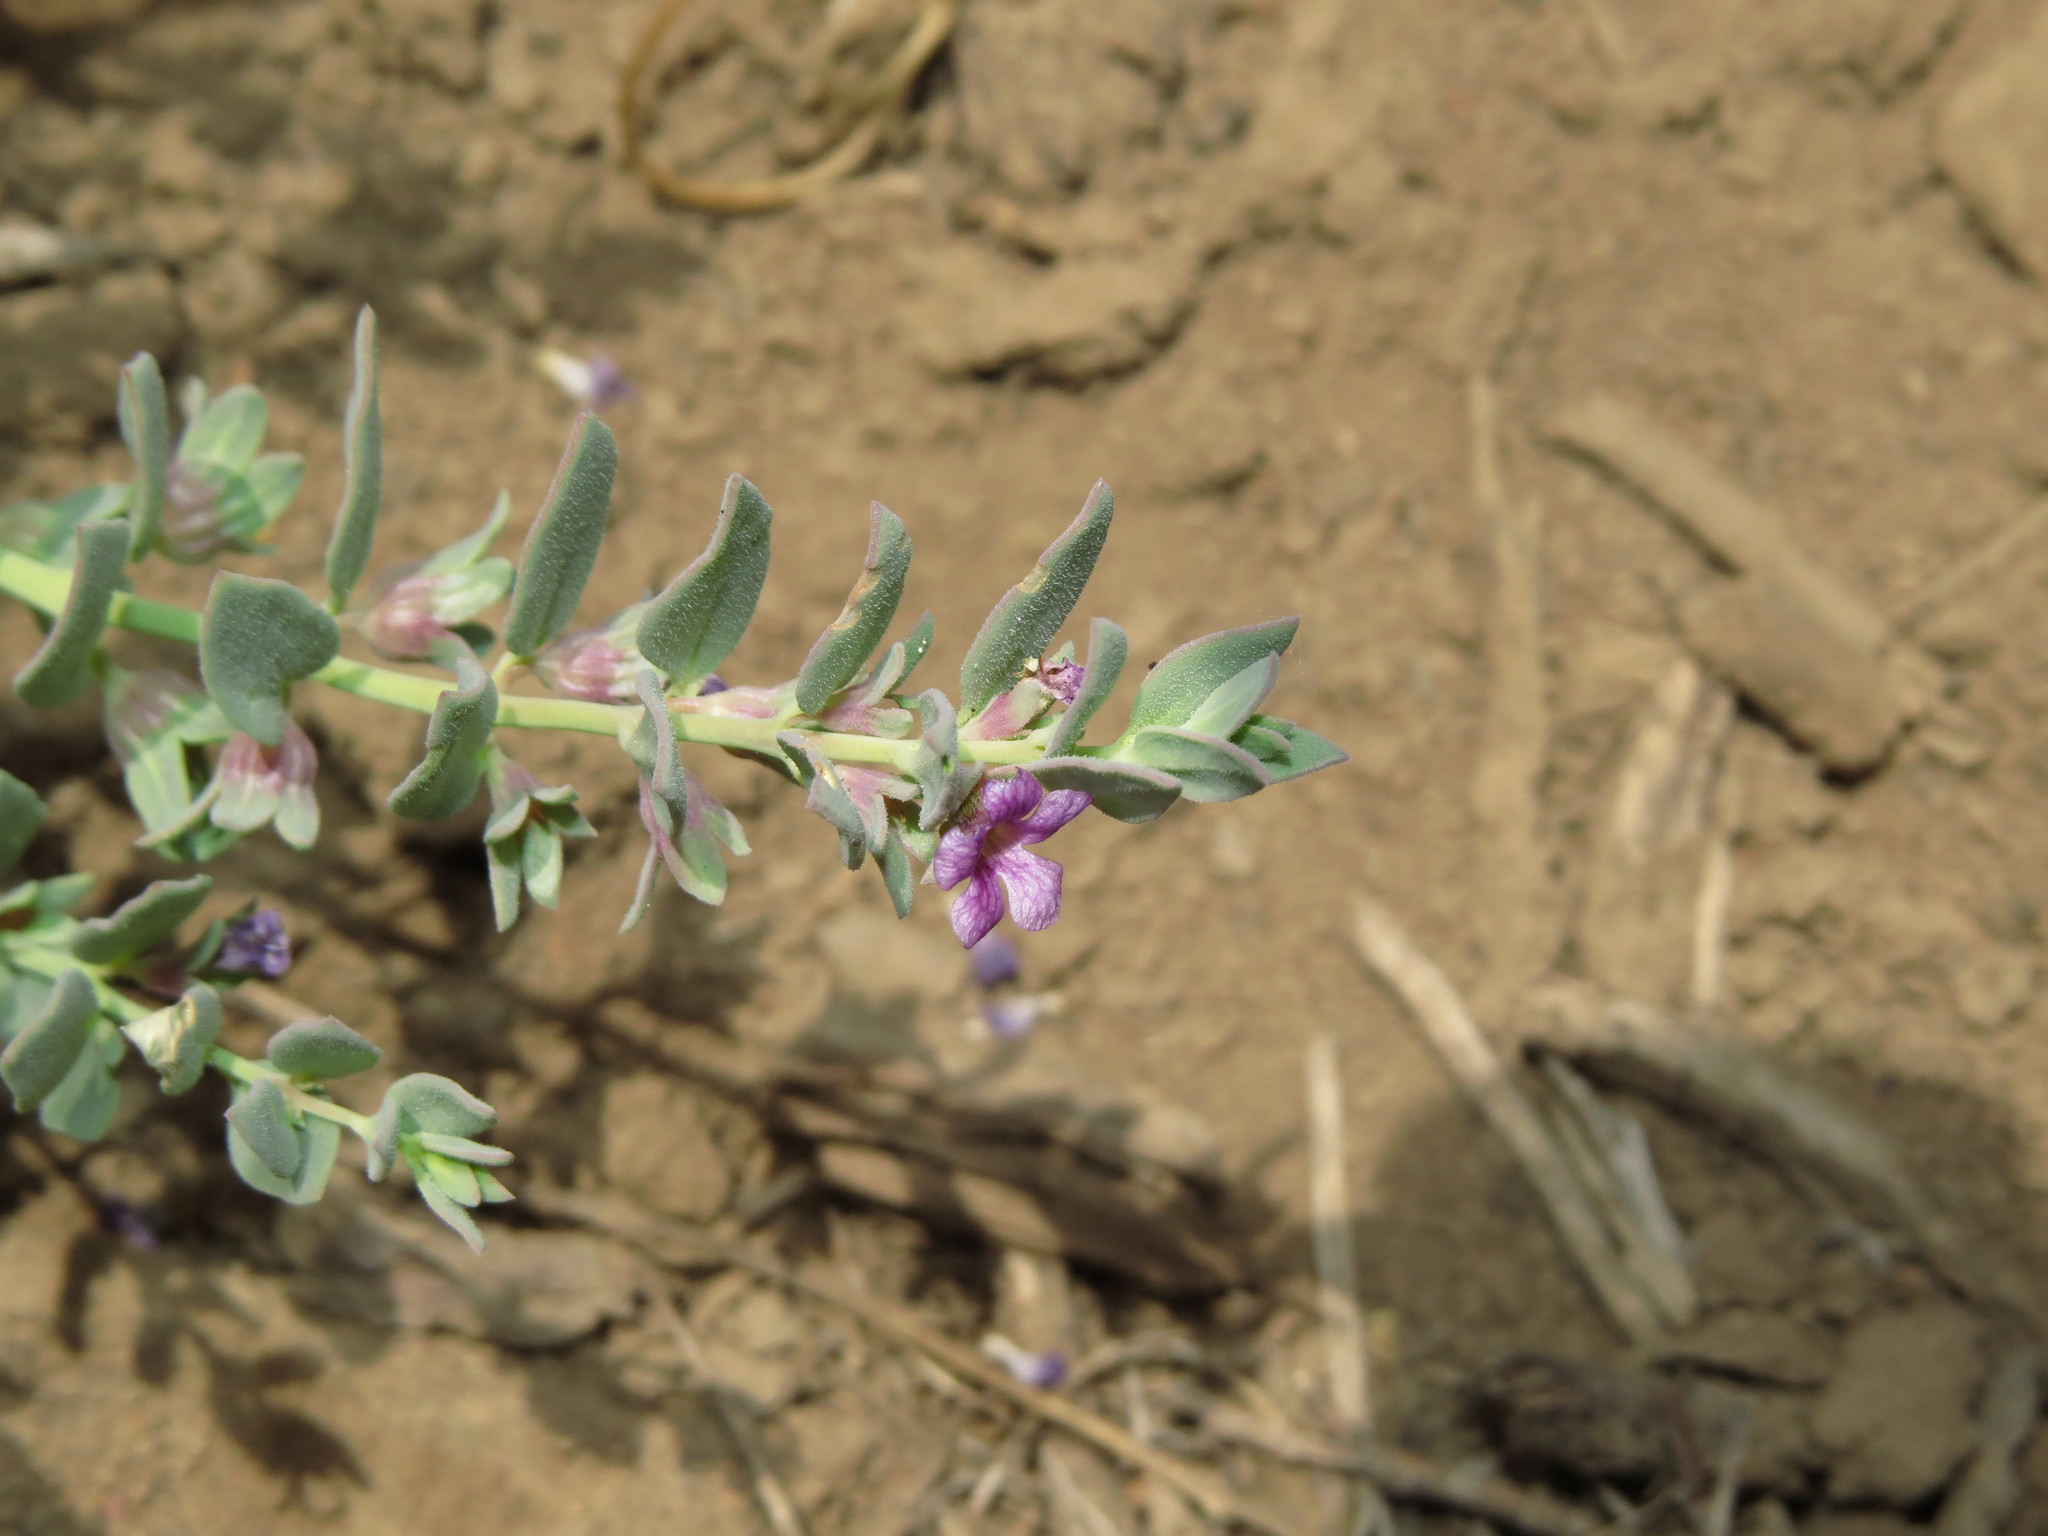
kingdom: Plantae
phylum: Tracheophyta
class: Magnoliopsida
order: Lamiales
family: Plantaginaceae
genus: Melosperma
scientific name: Melosperma andicola
